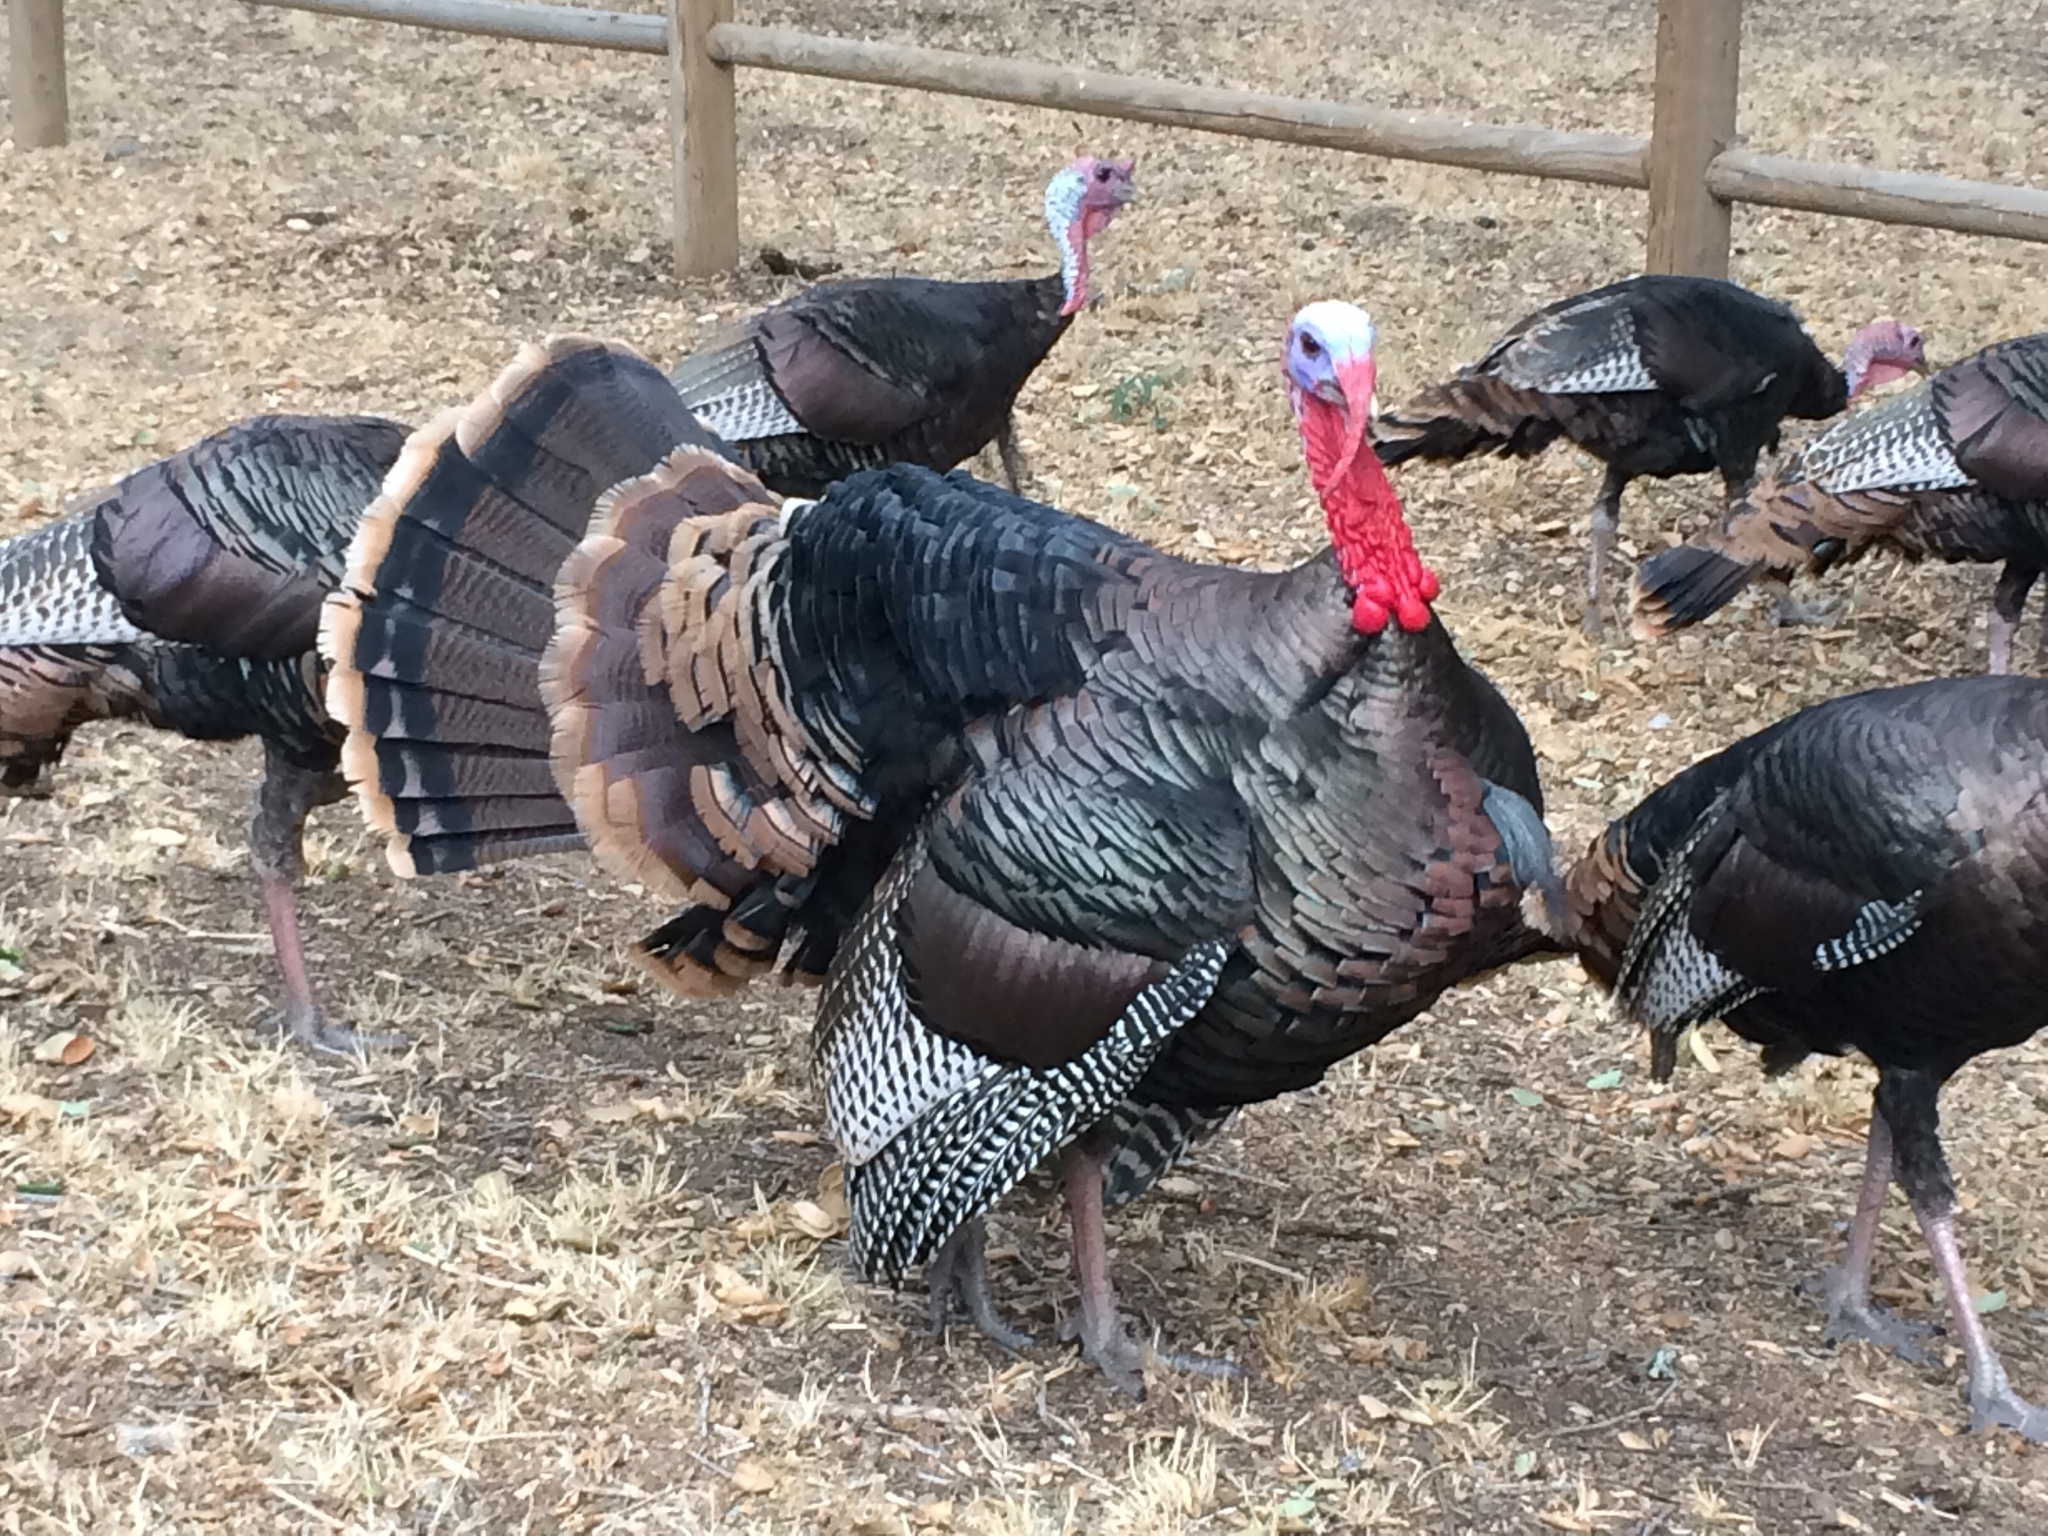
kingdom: Animalia
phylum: Chordata
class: Aves
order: Galliformes
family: Phasianidae
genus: Meleagris
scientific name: Meleagris gallopavo
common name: Wild turkey
